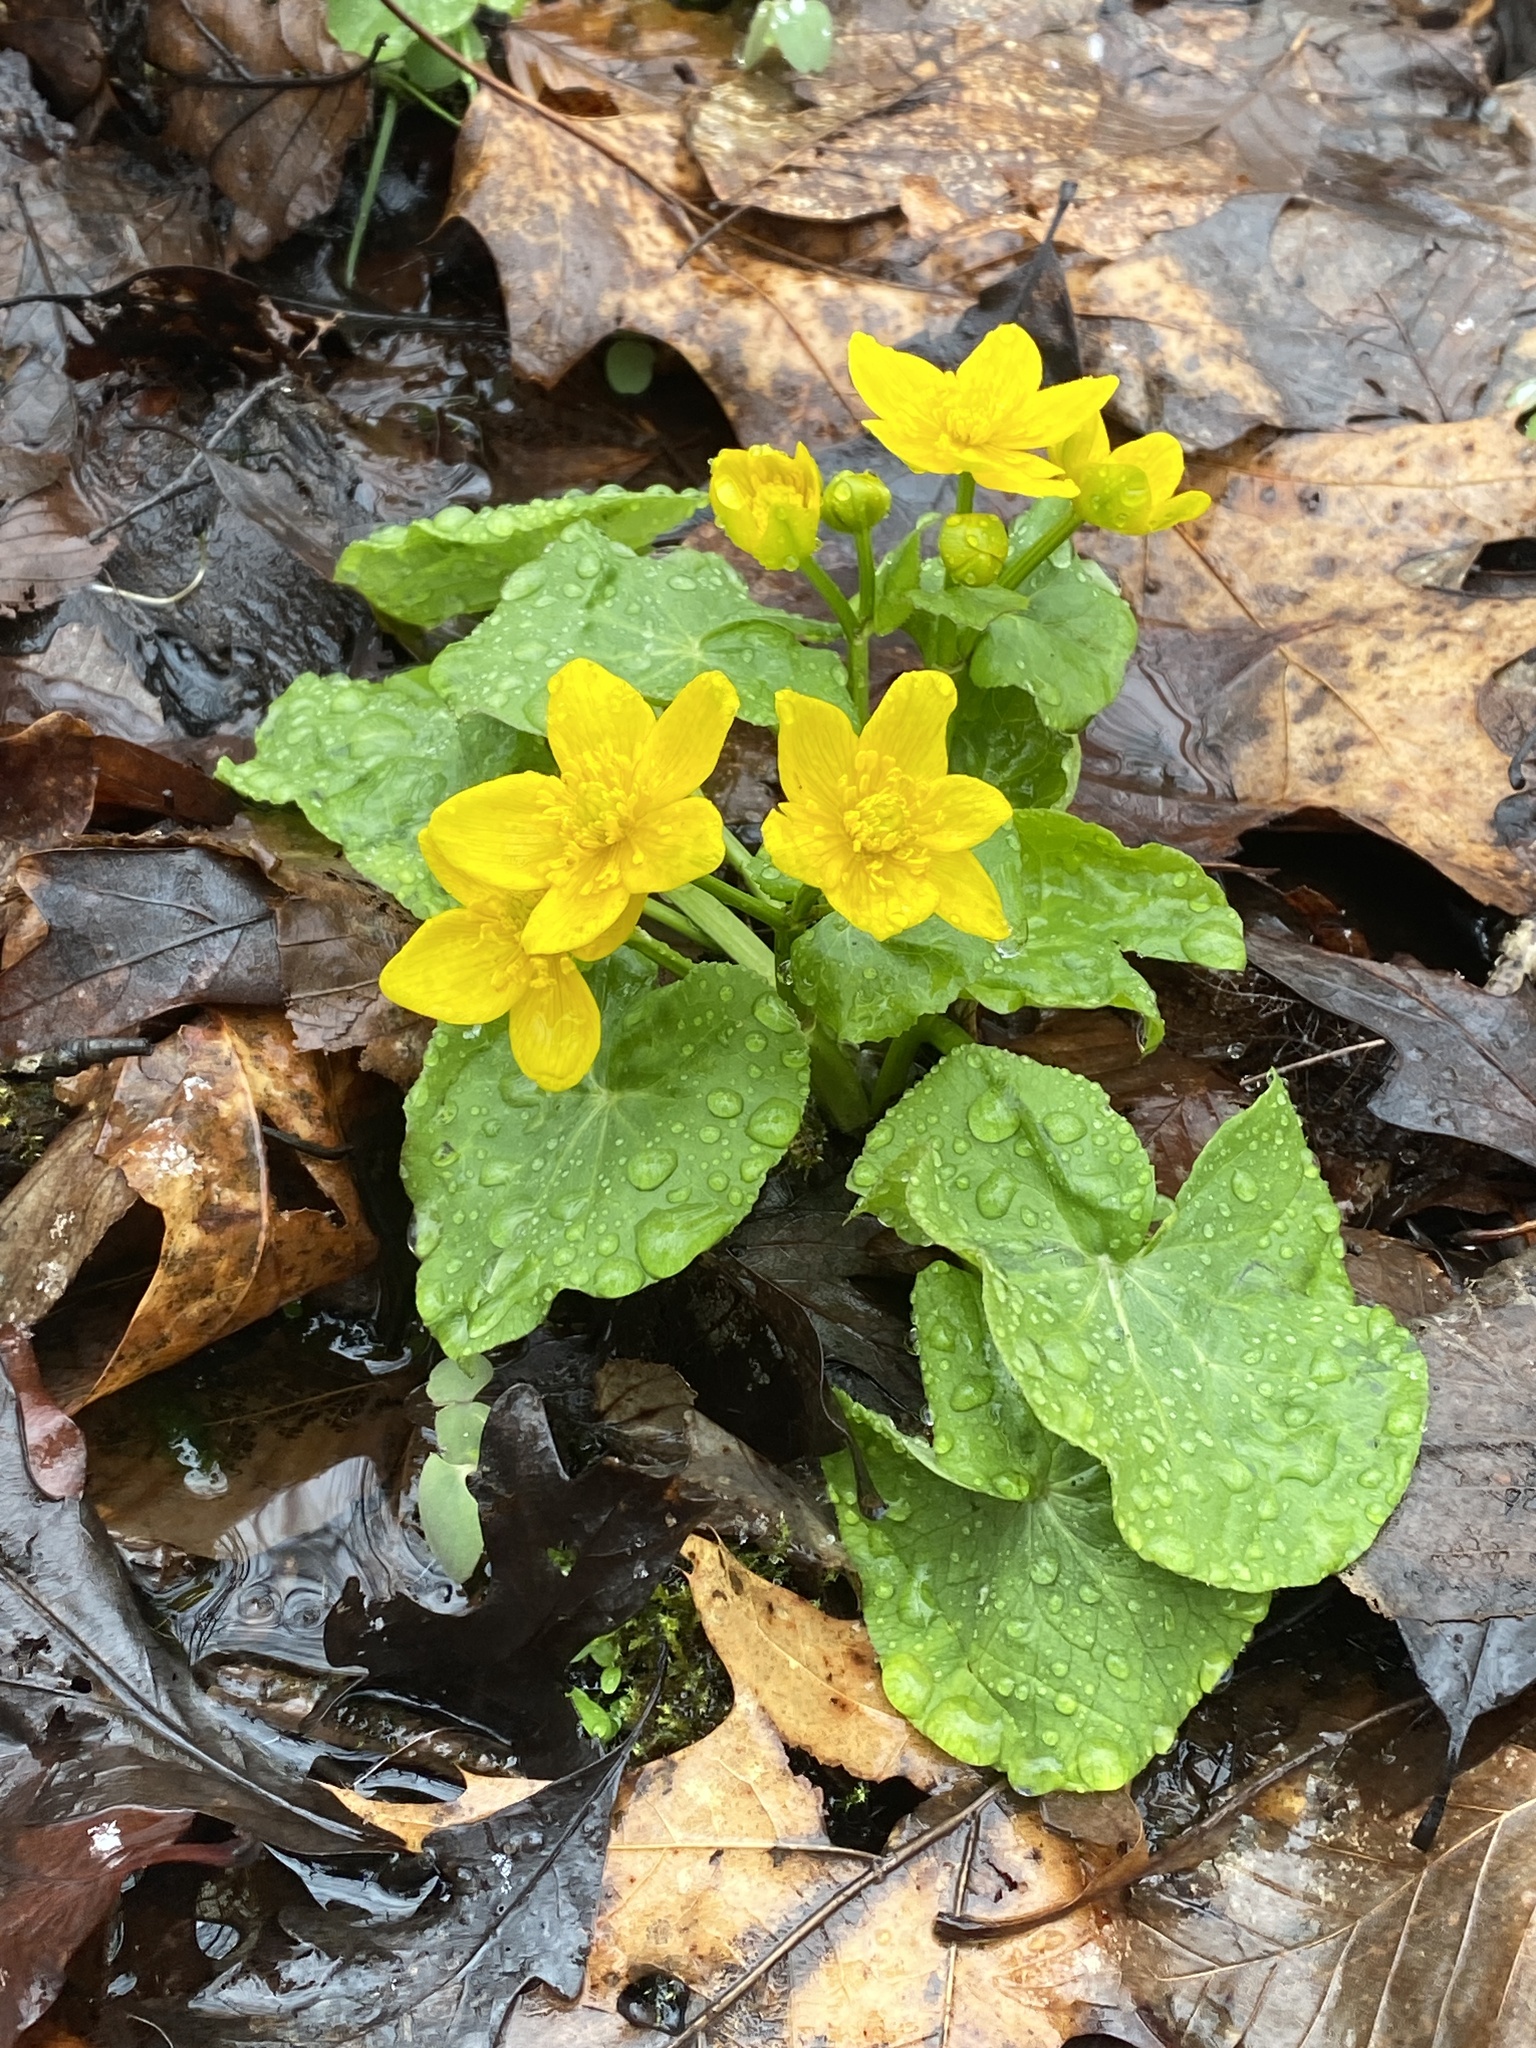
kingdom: Plantae
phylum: Tracheophyta
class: Magnoliopsida
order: Ranunculales
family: Ranunculaceae
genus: Caltha
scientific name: Caltha palustris
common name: Marsh marigold
